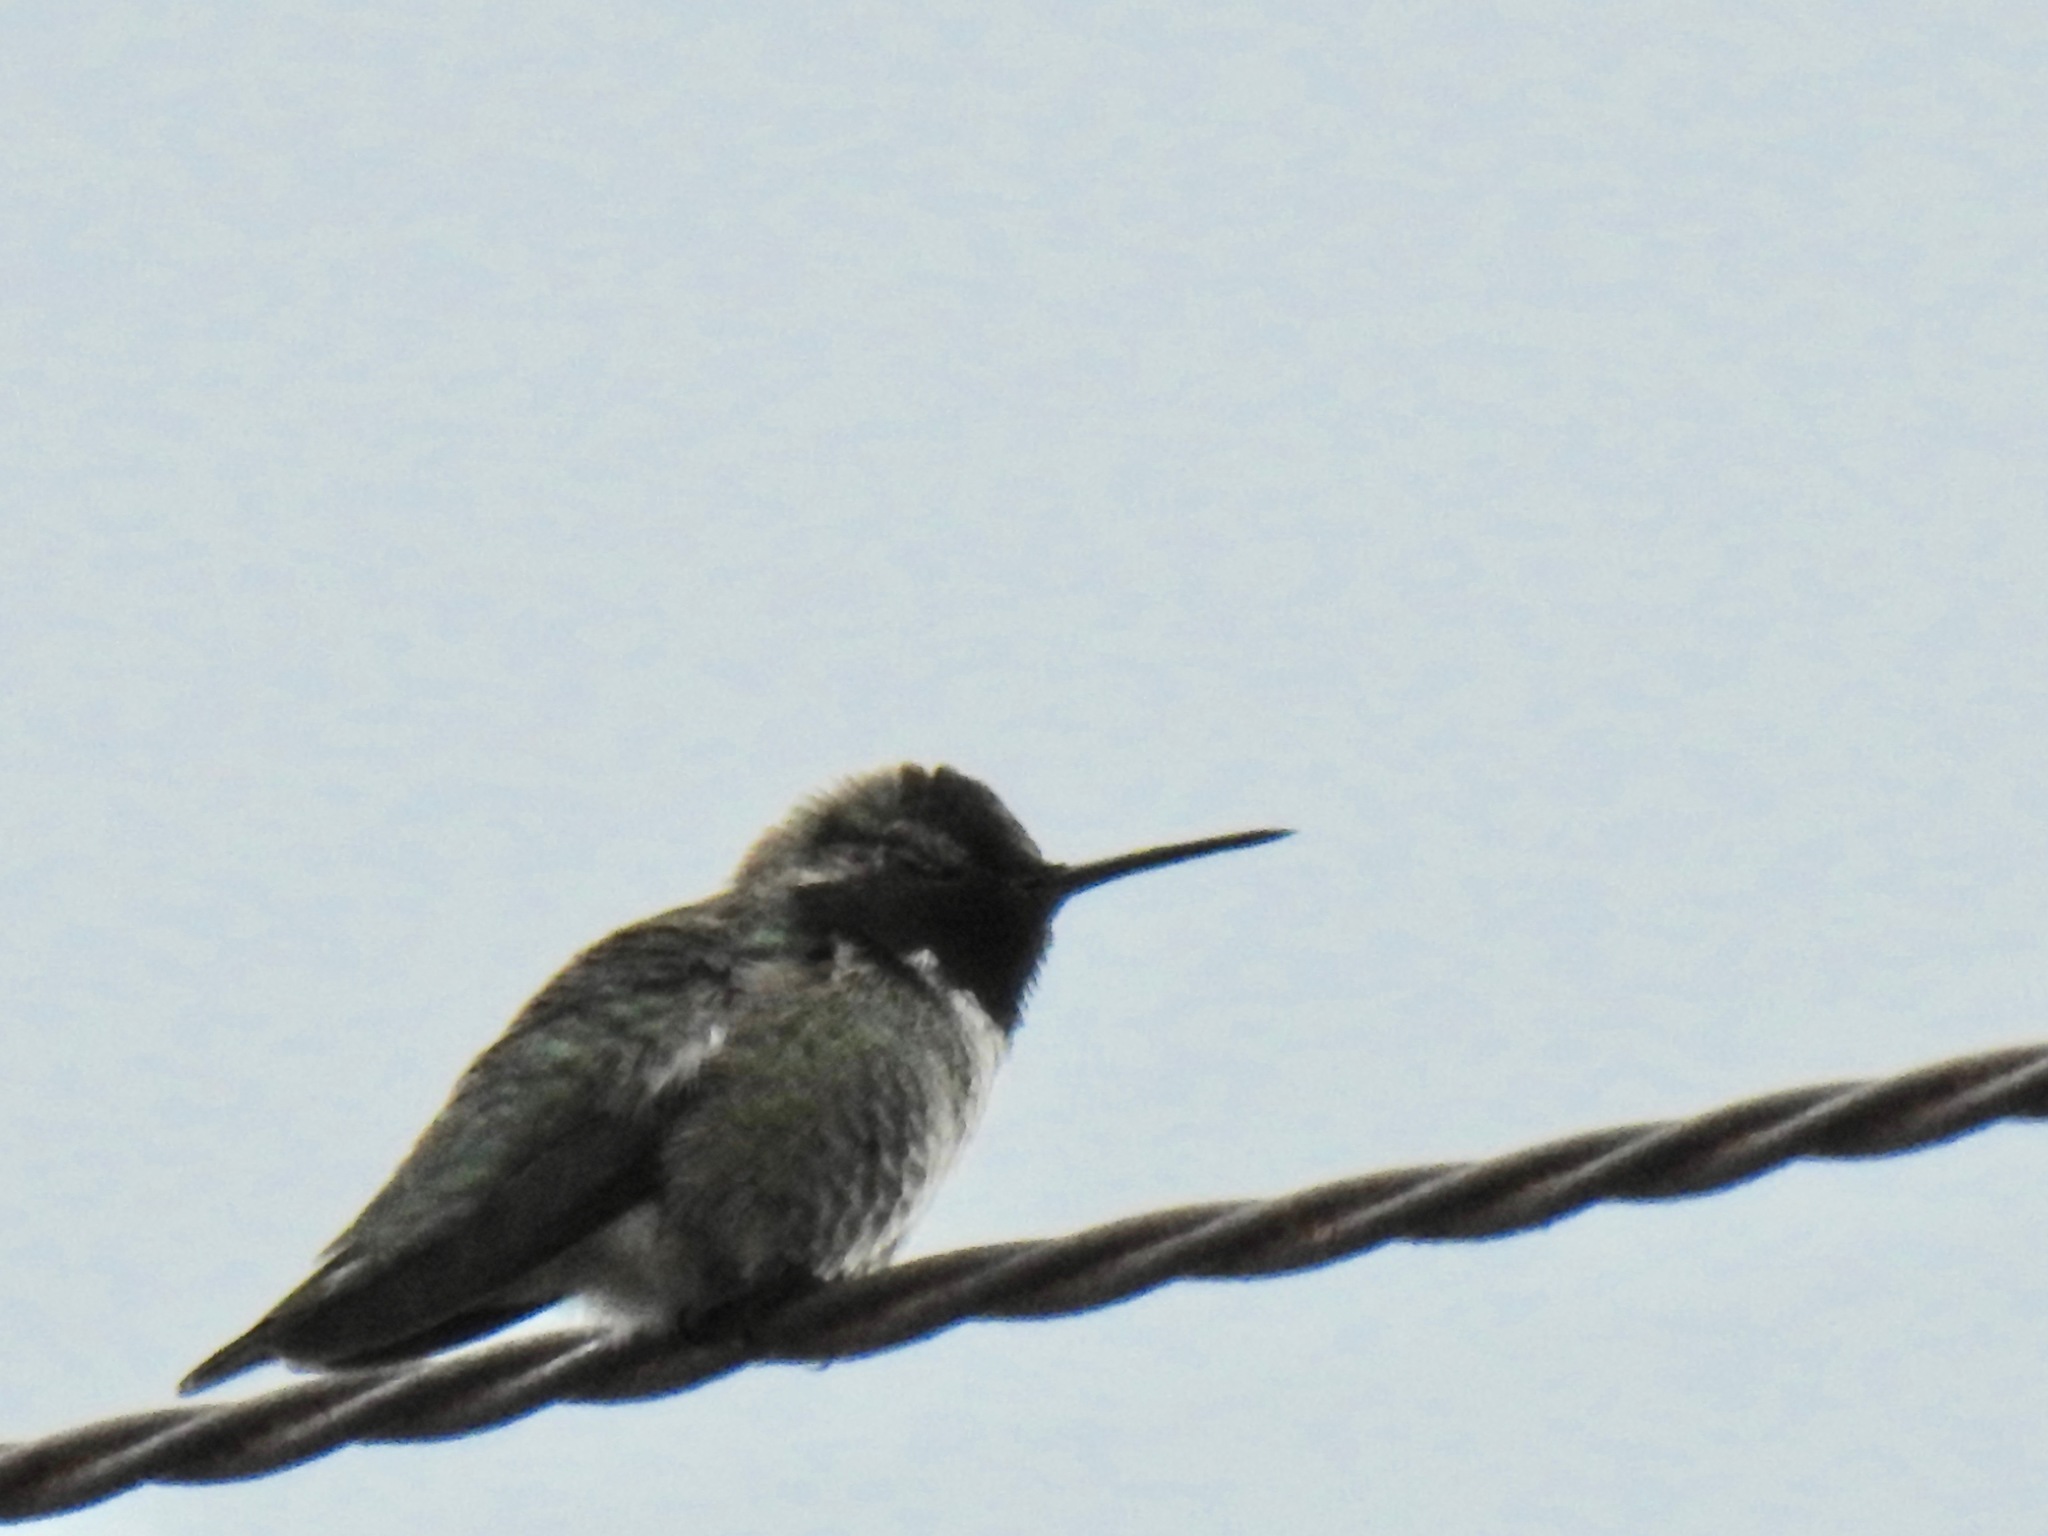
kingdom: Animalia
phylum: Chordata
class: Aves
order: Apodiformes
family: Trochilidae
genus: Calypte
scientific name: Calypte anna
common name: Anna's hummingbird
